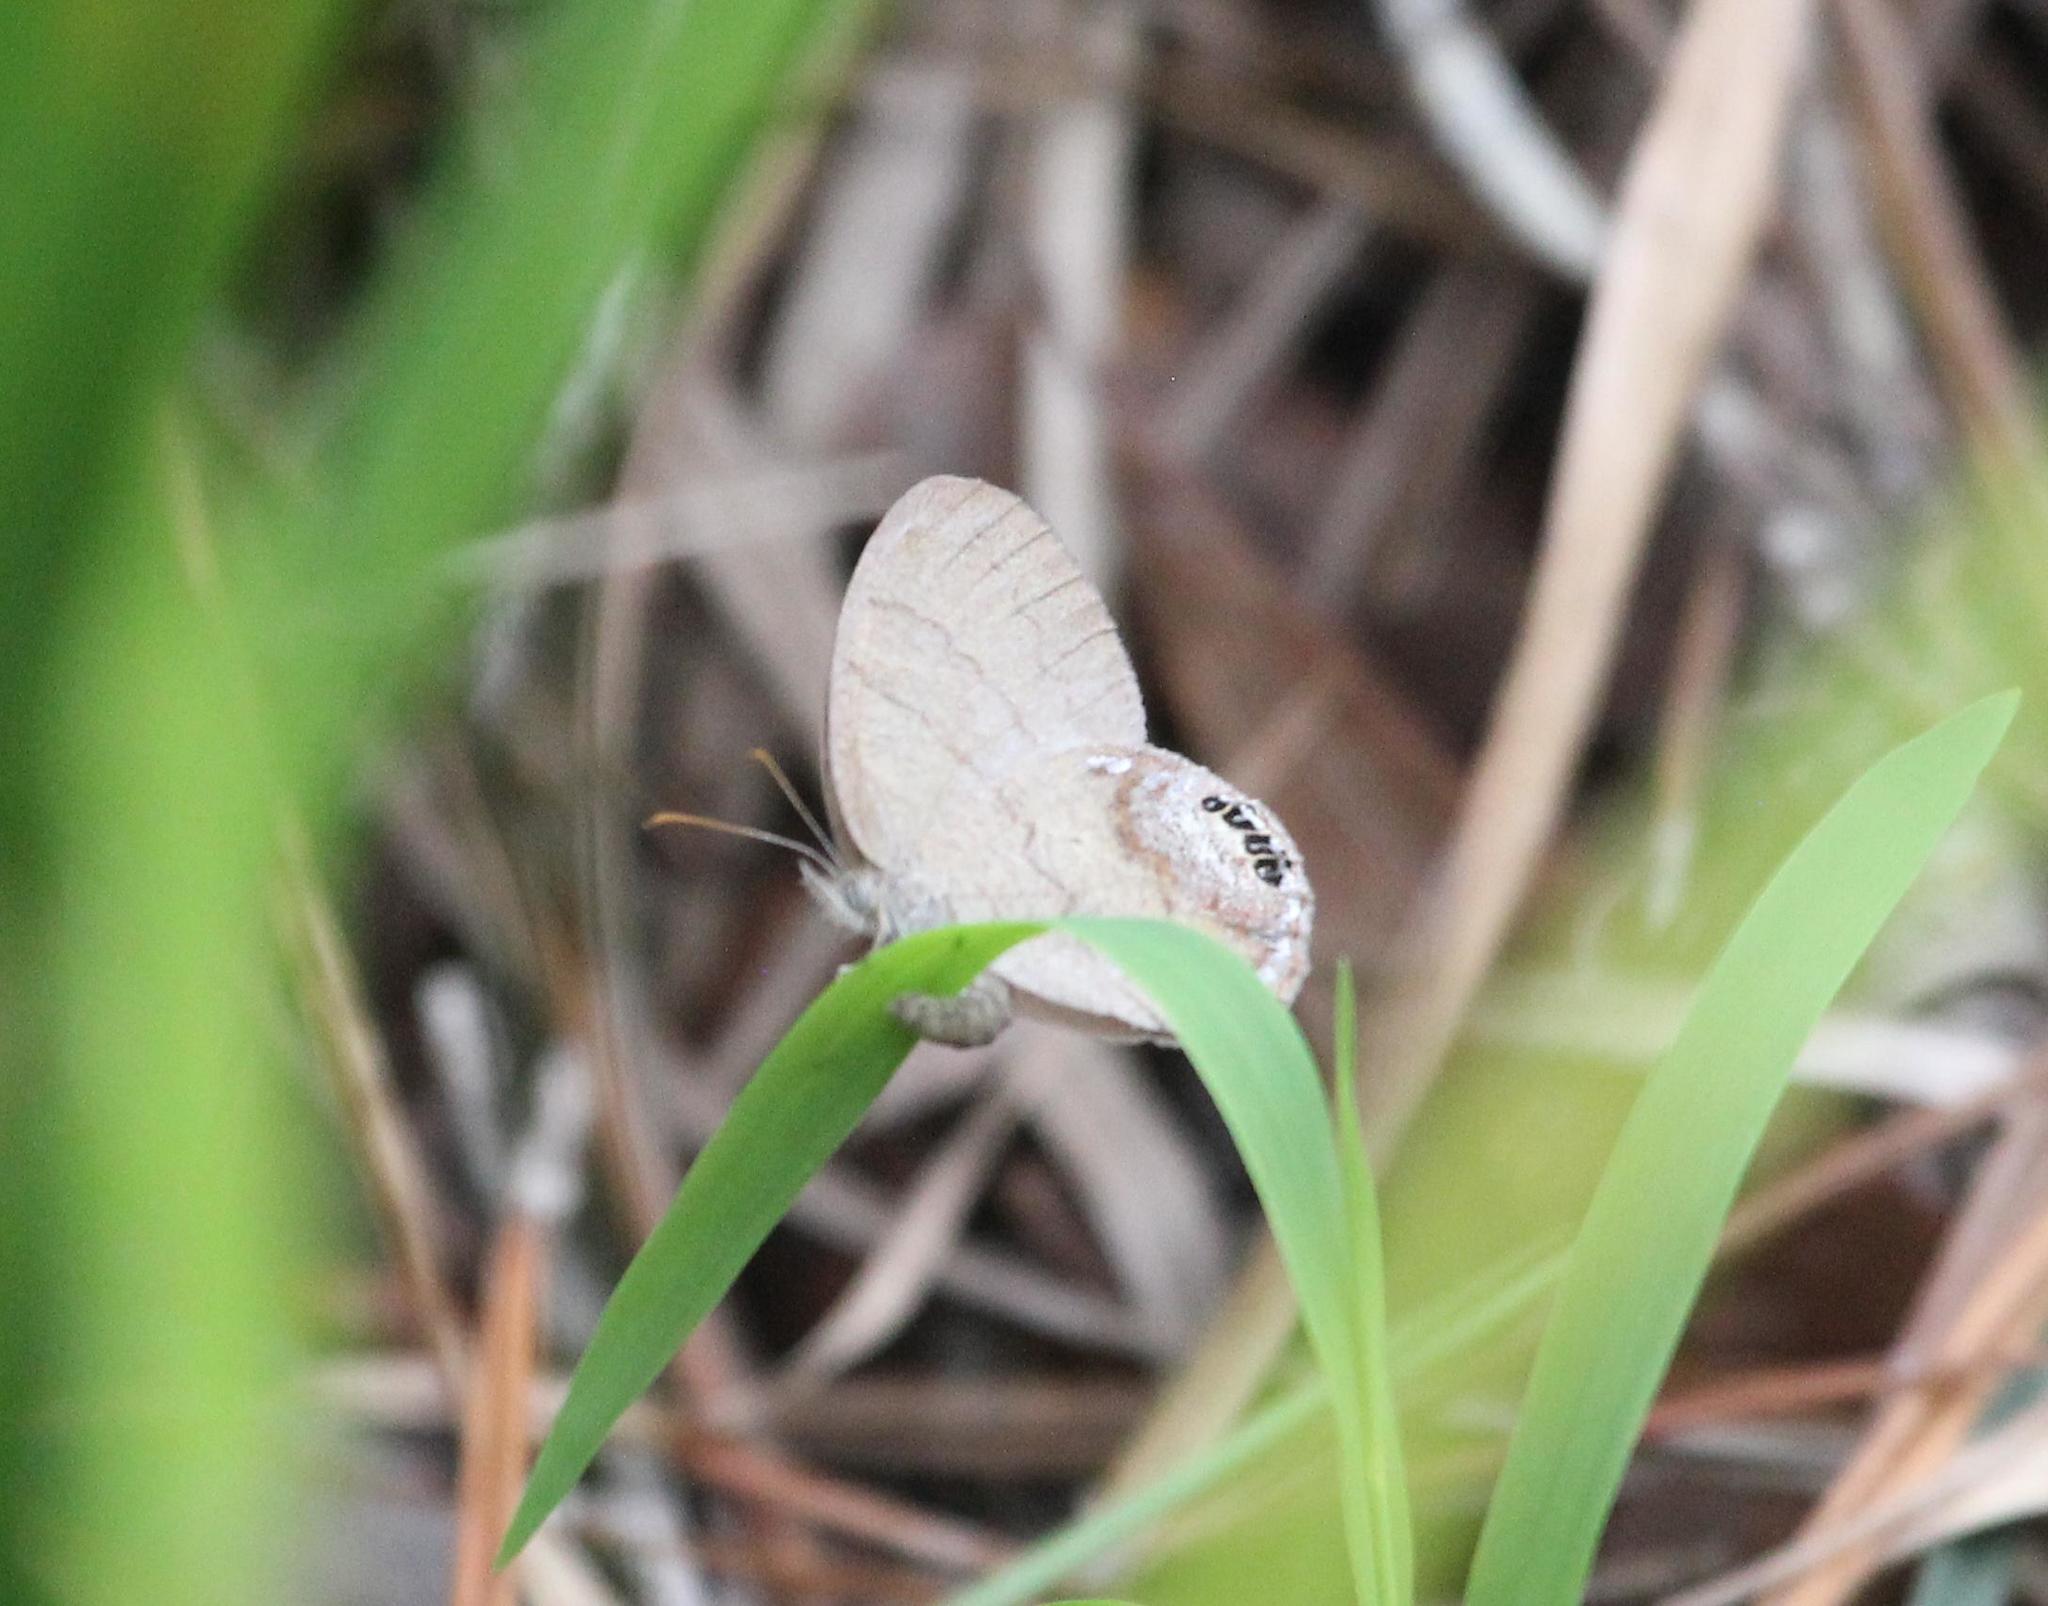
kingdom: Animalia
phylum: Arthropoda
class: Insecta
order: Lepidoptera
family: Nymphalidae
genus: Euptychia
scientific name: Euptychia cornelius
